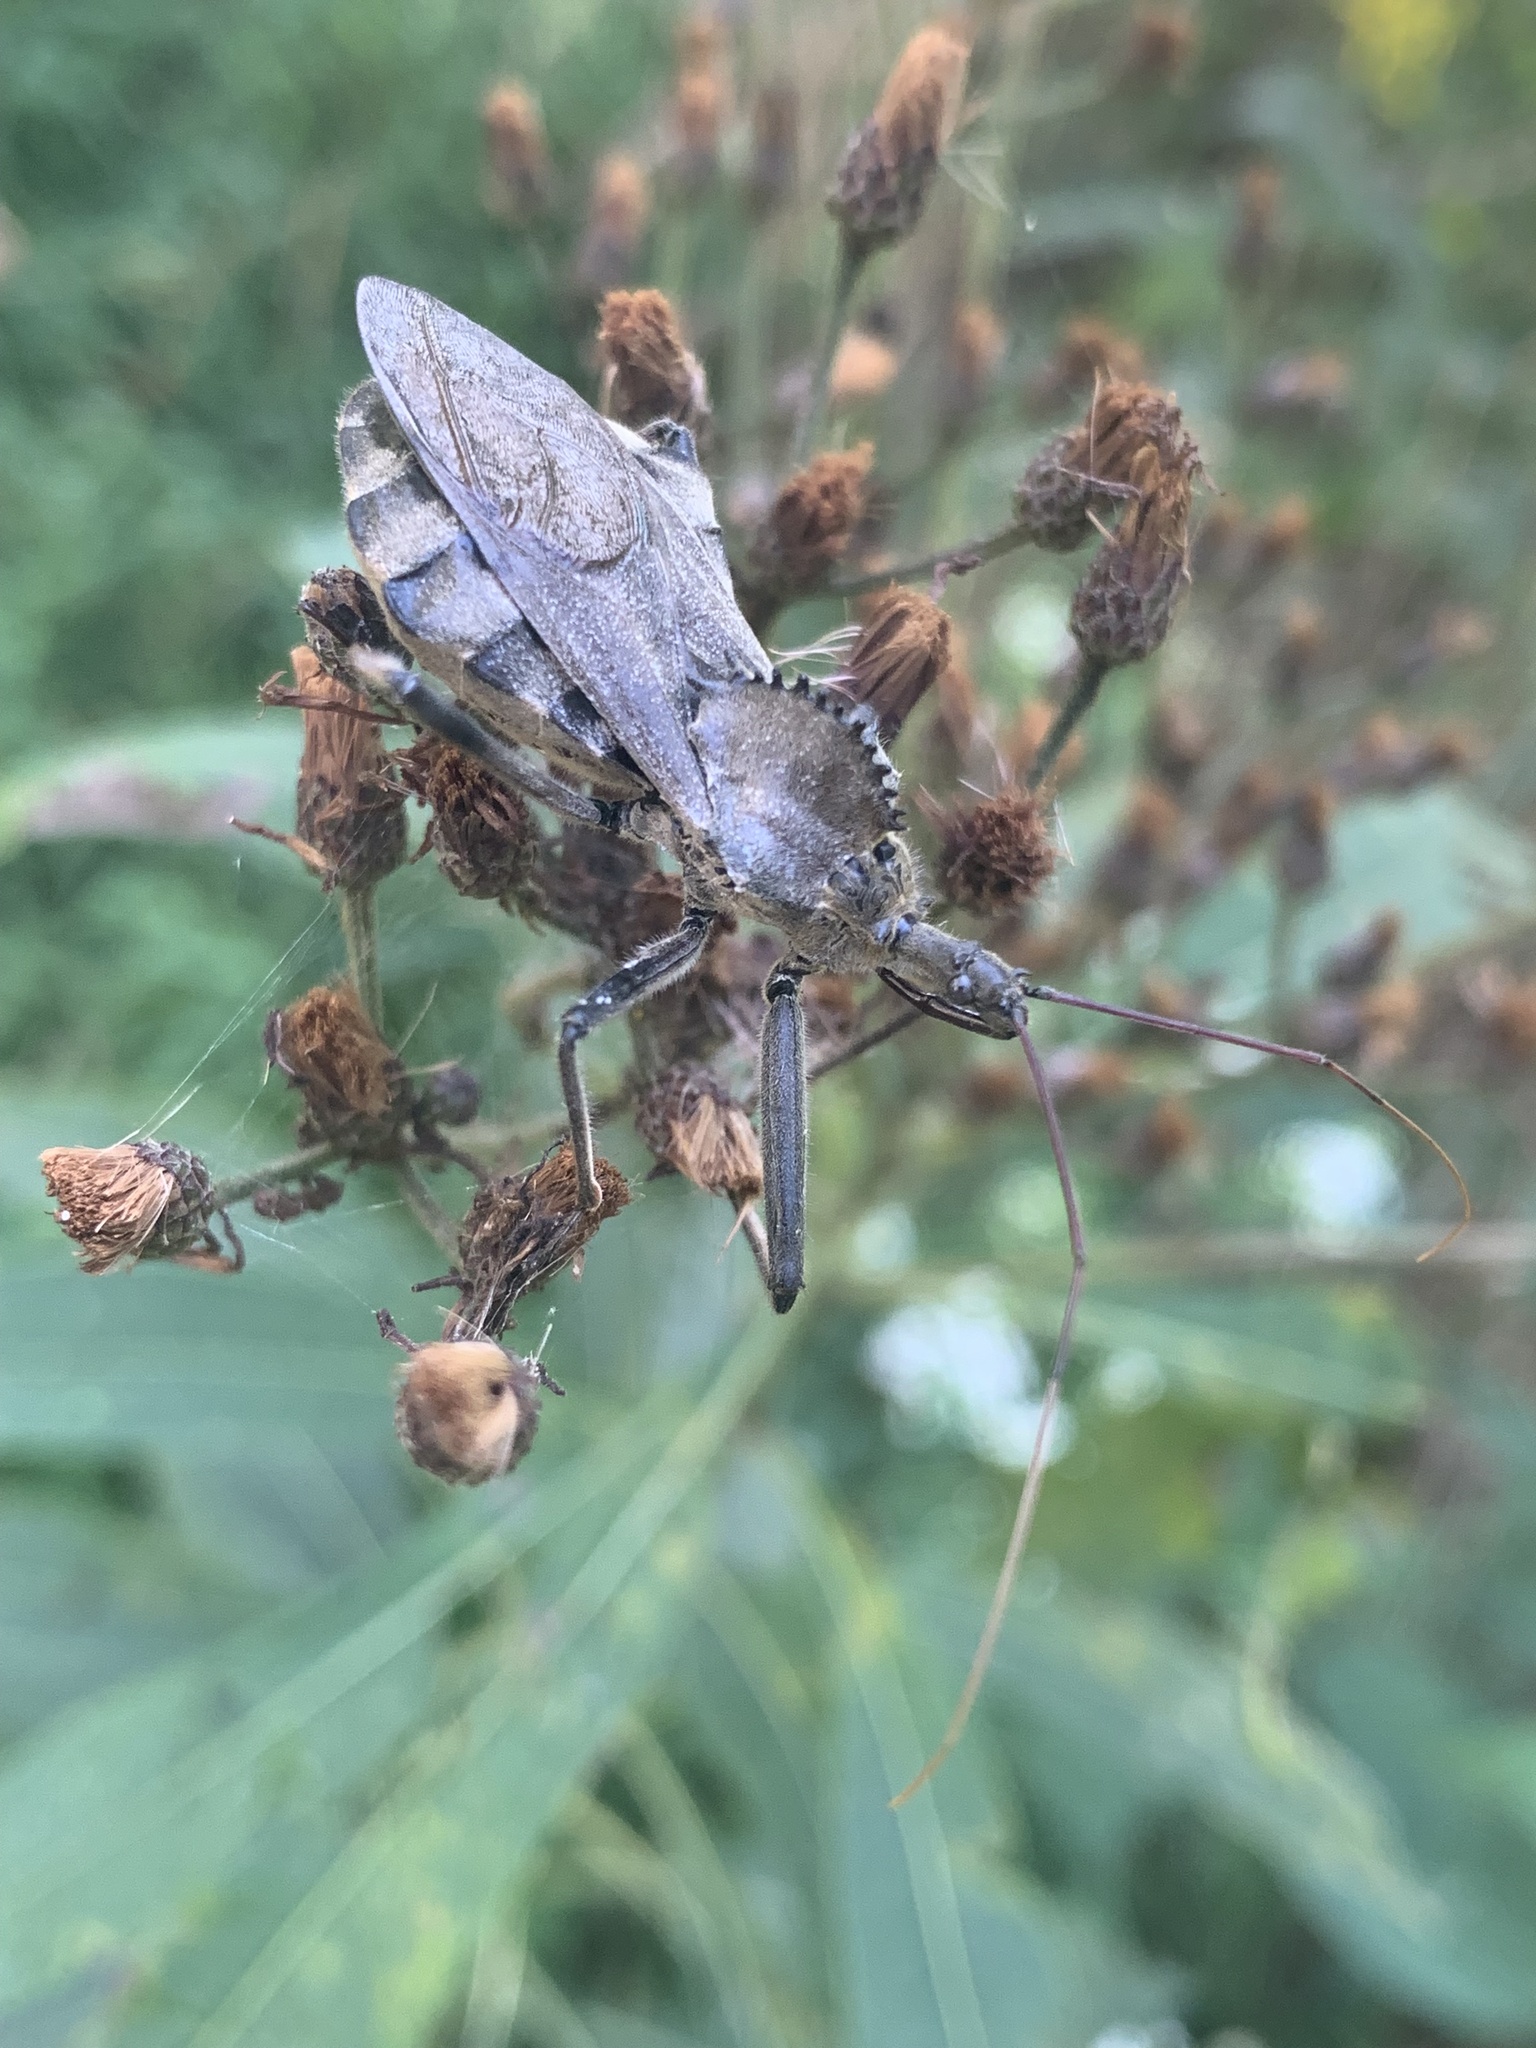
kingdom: Animalia
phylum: Arthropoda
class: Insecta
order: Hemiptera
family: Reduviidae
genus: Arilus
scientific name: Arilus cristatus
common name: North american wheel bug
